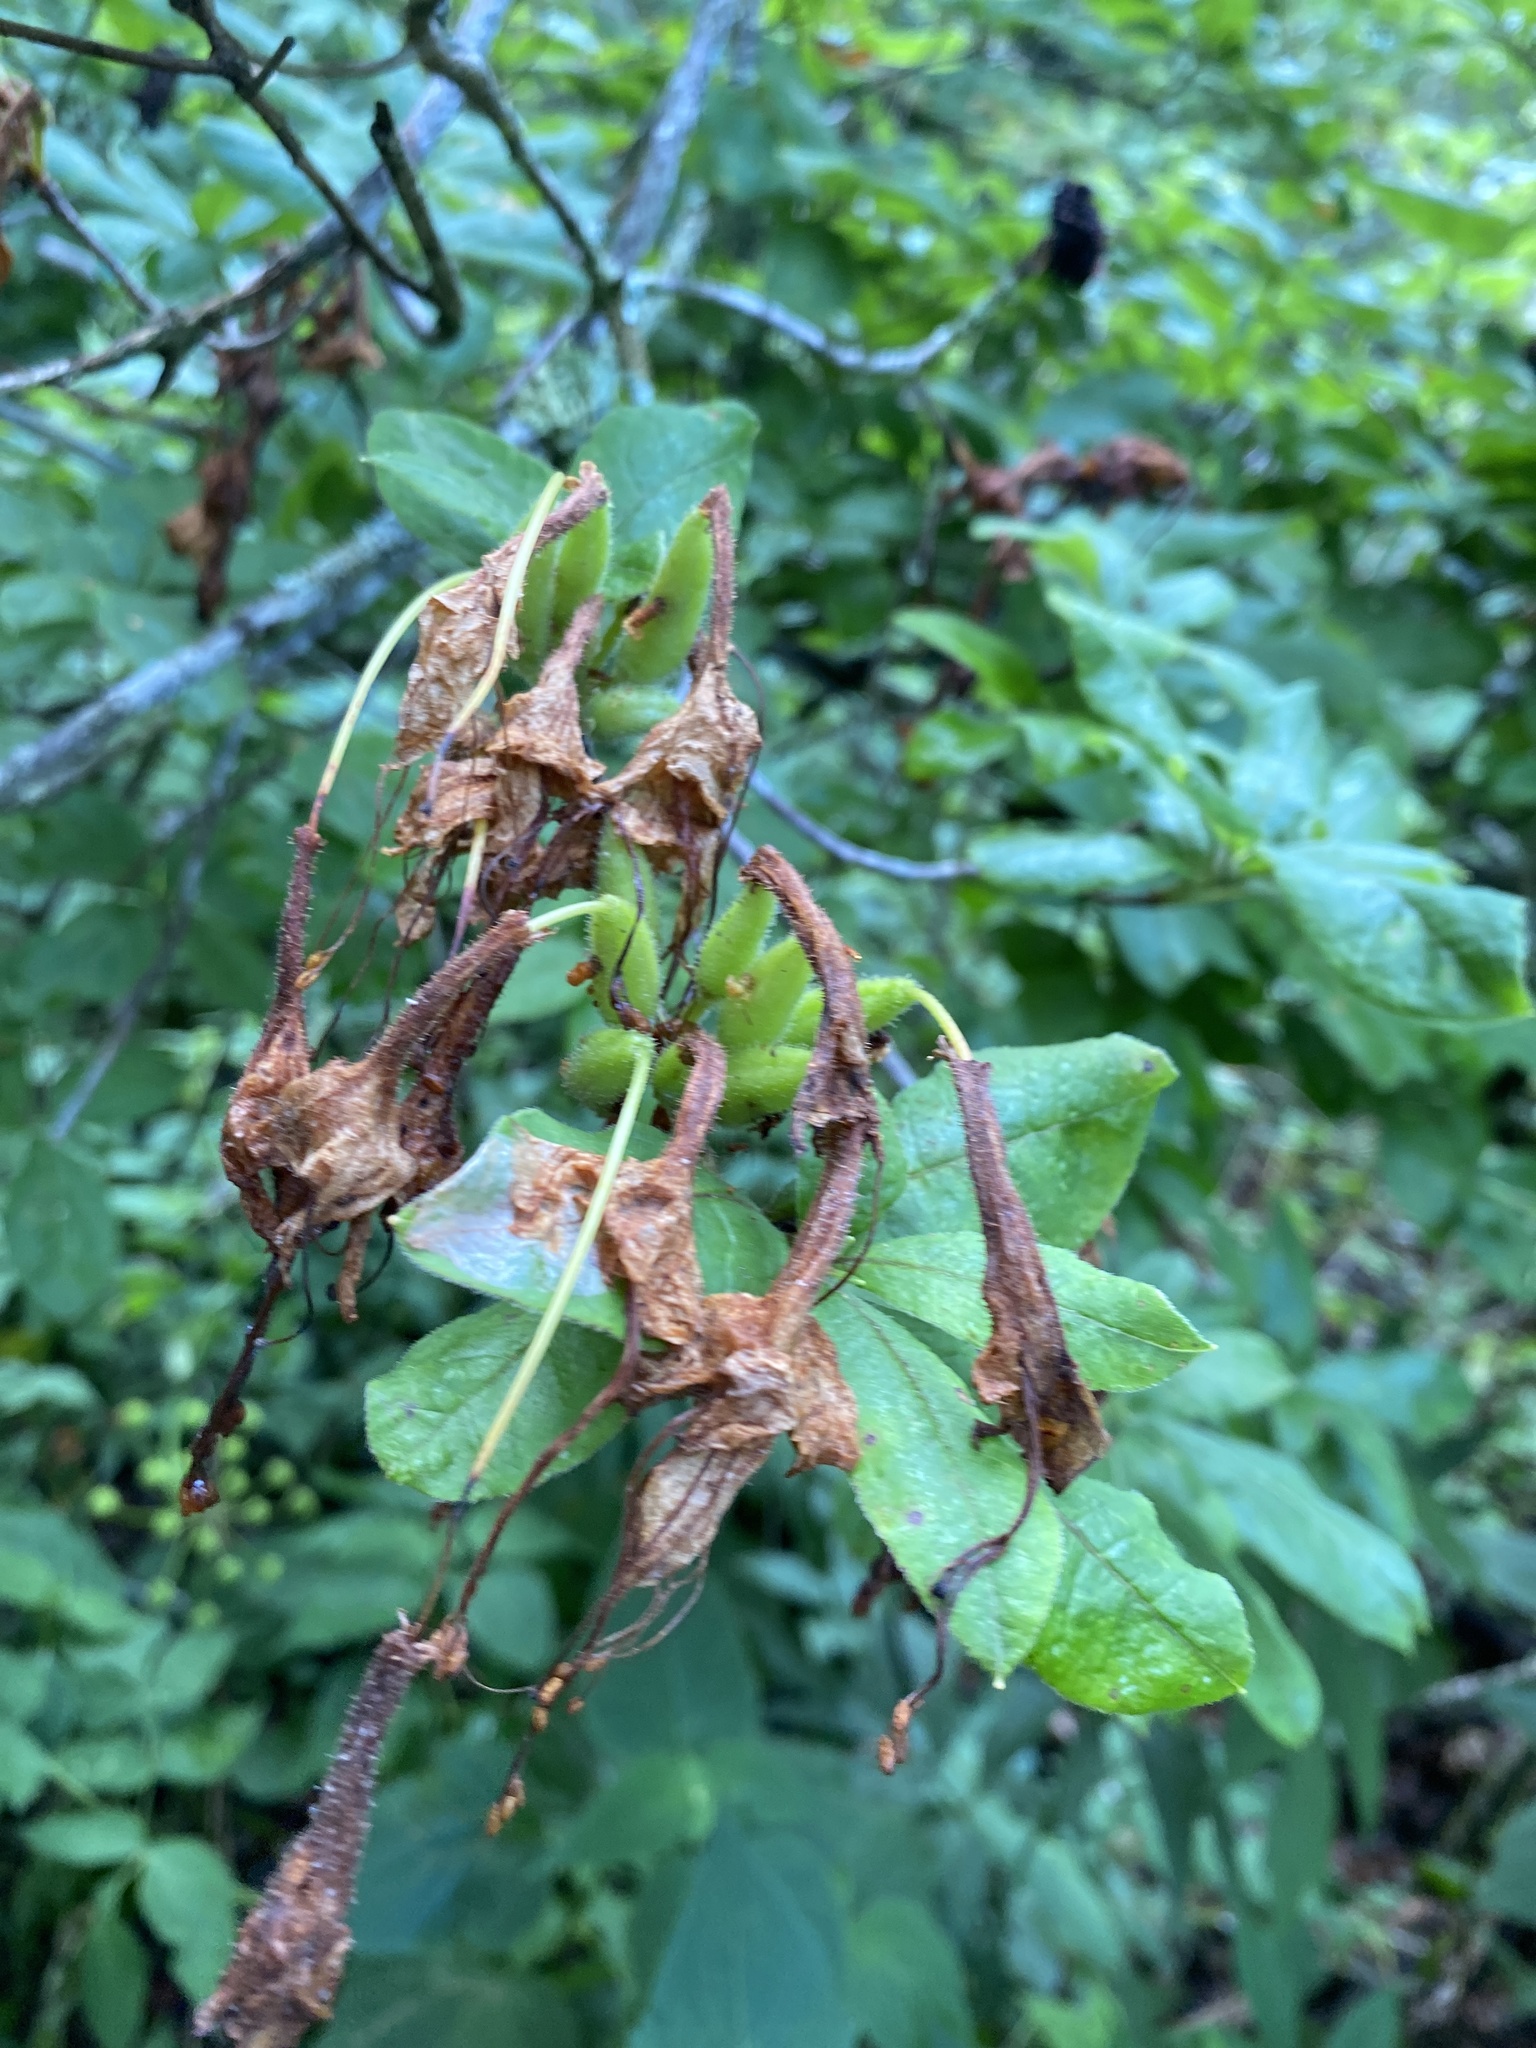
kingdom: Plantae
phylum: Tracheophyta
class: Magnoliopsida
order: Ericales
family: Ericaceae
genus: Rhododendron
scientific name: Rhododendron calendulaceum
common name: Flame azalea
